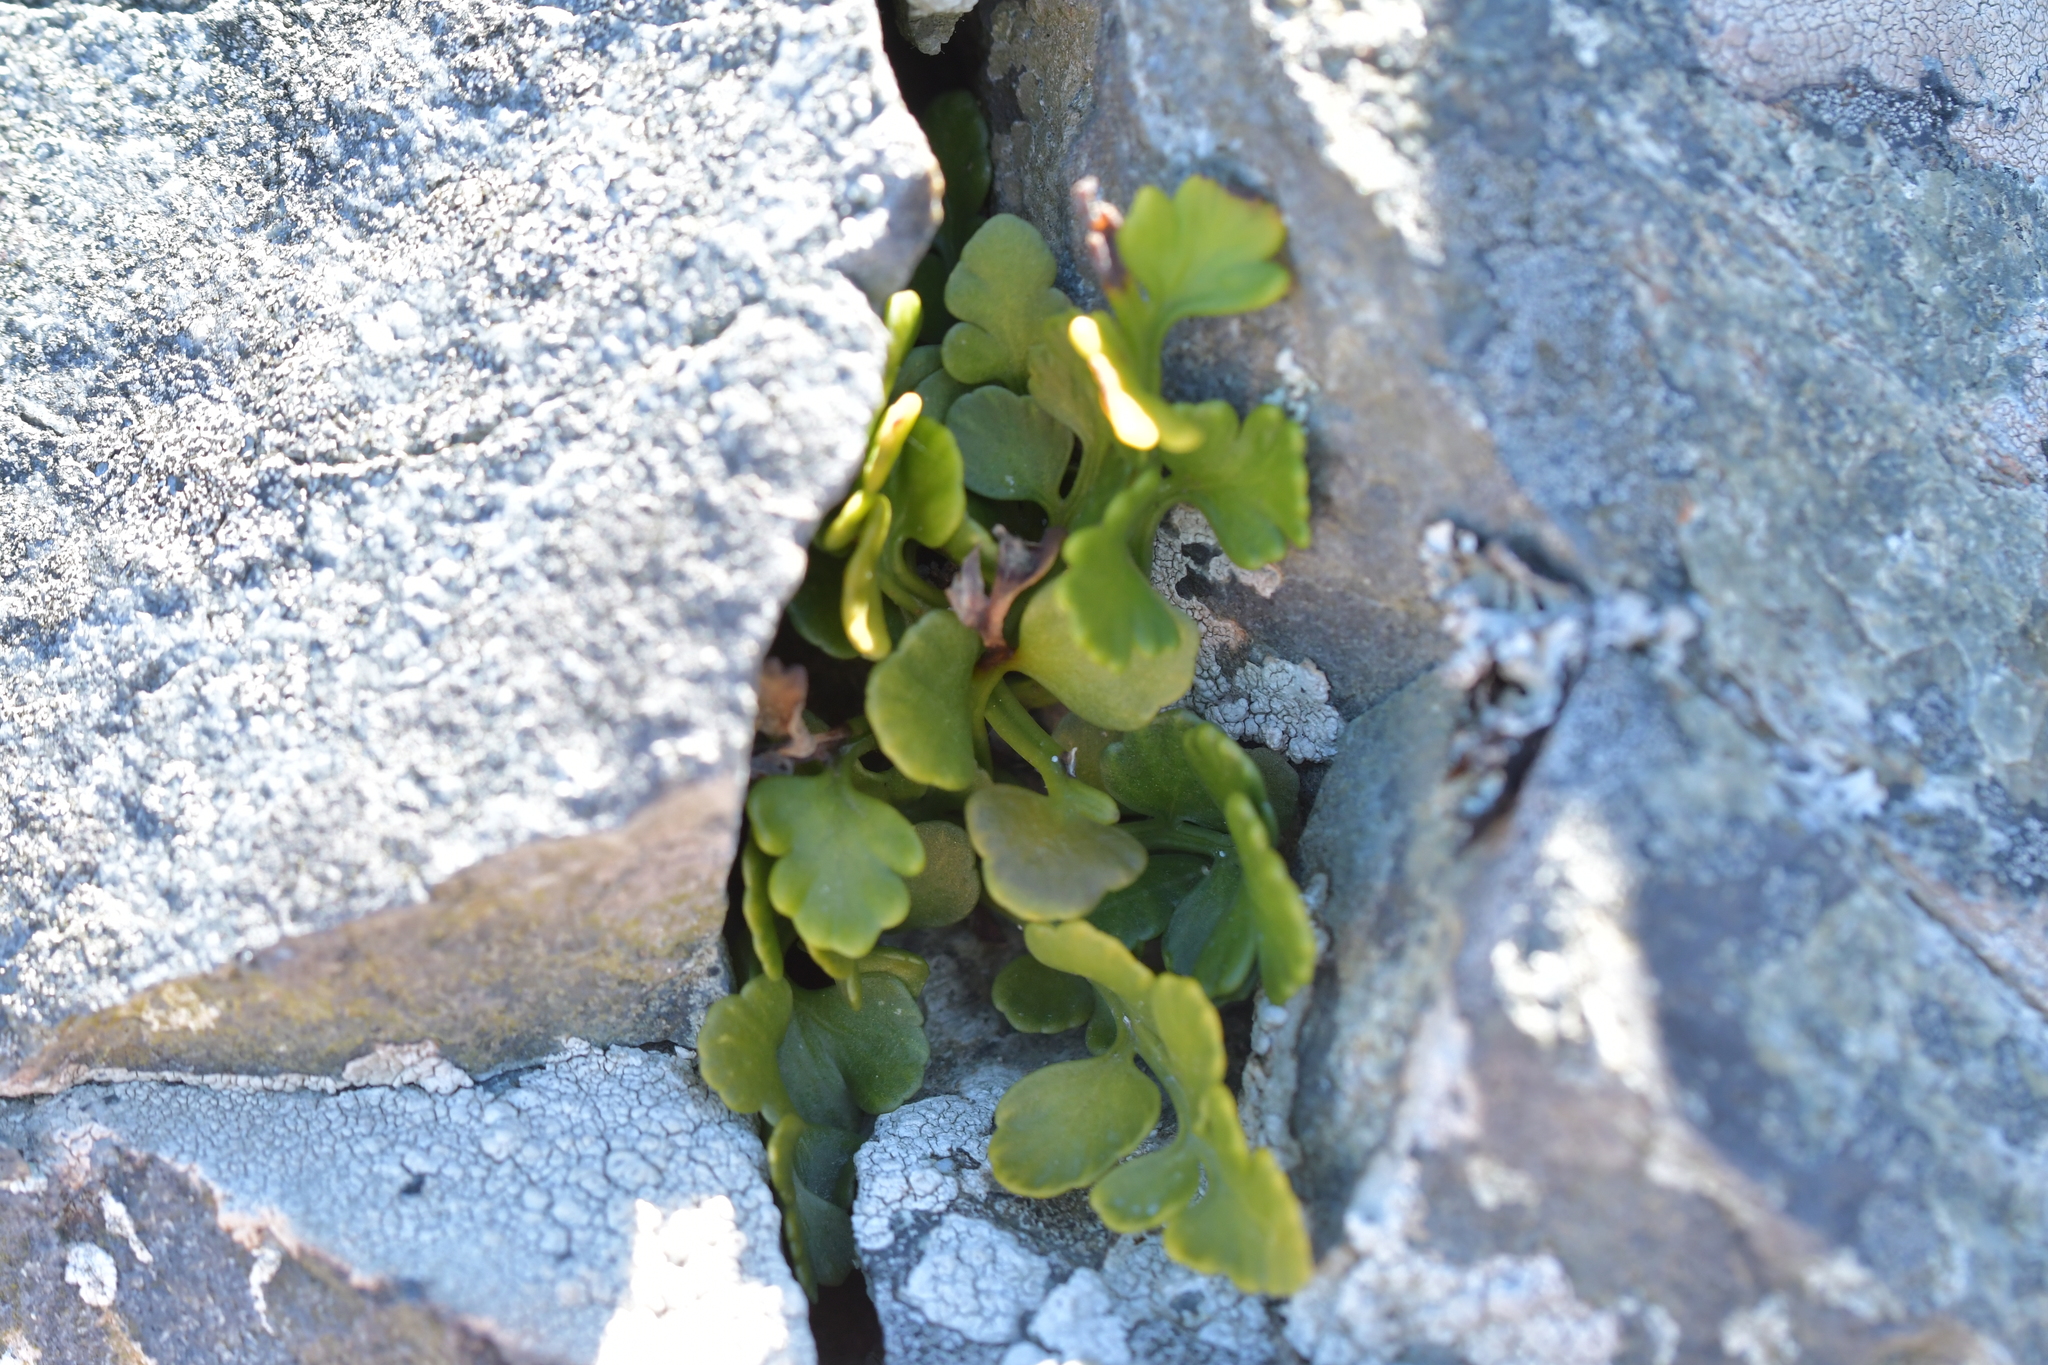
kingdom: Plantae
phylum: Tracheophyta
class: Polypodiopsida
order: Polypodiales
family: Aspleniaceae
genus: Asplenium
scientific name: Asplenium appendiculatum
